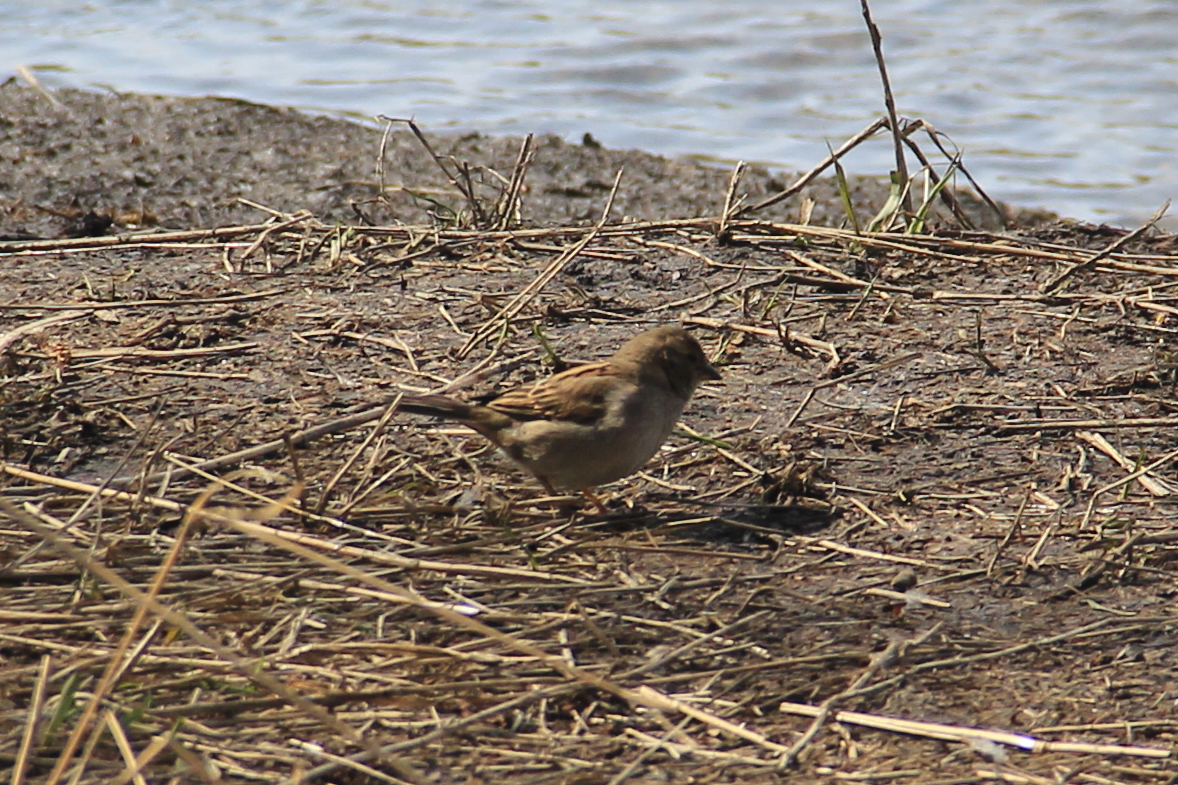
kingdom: Animalia
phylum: Chordata
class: Aves
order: Passeriformes
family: Passeridae
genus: Passer
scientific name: Passer domesticus
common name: House sparrow
